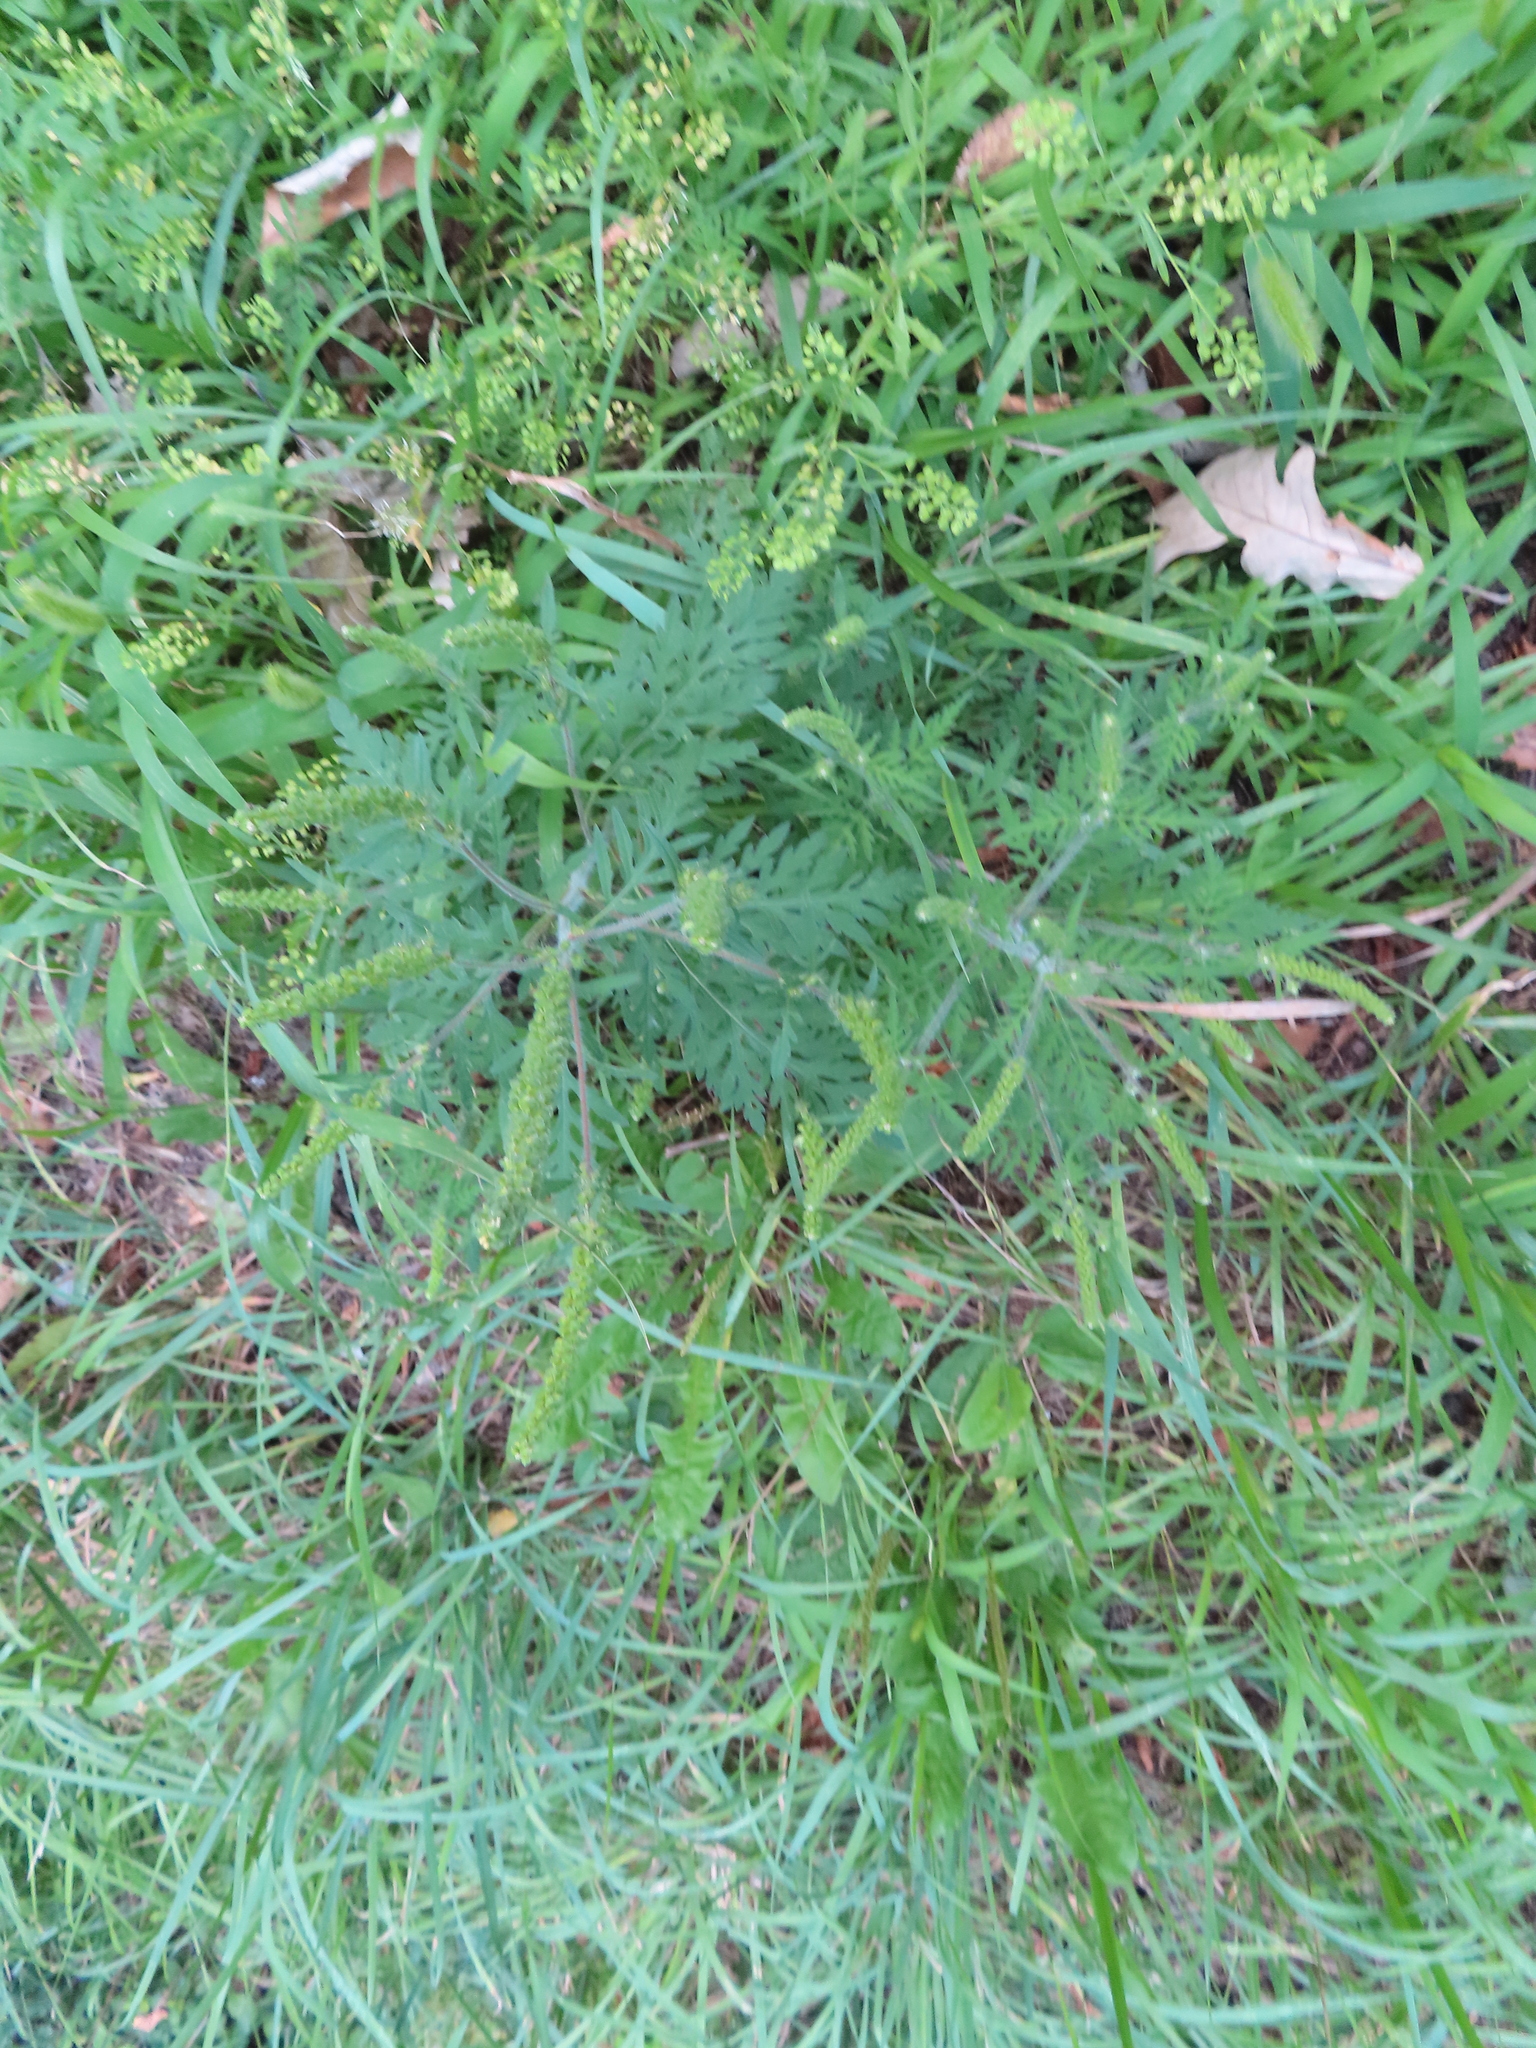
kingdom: Plantae
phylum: Tracheophyta
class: Magnoliopsida
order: Asterales
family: Asteraceae
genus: Ambrosia
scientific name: Ambrosia artemisiifolia
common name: Annual ragweed
